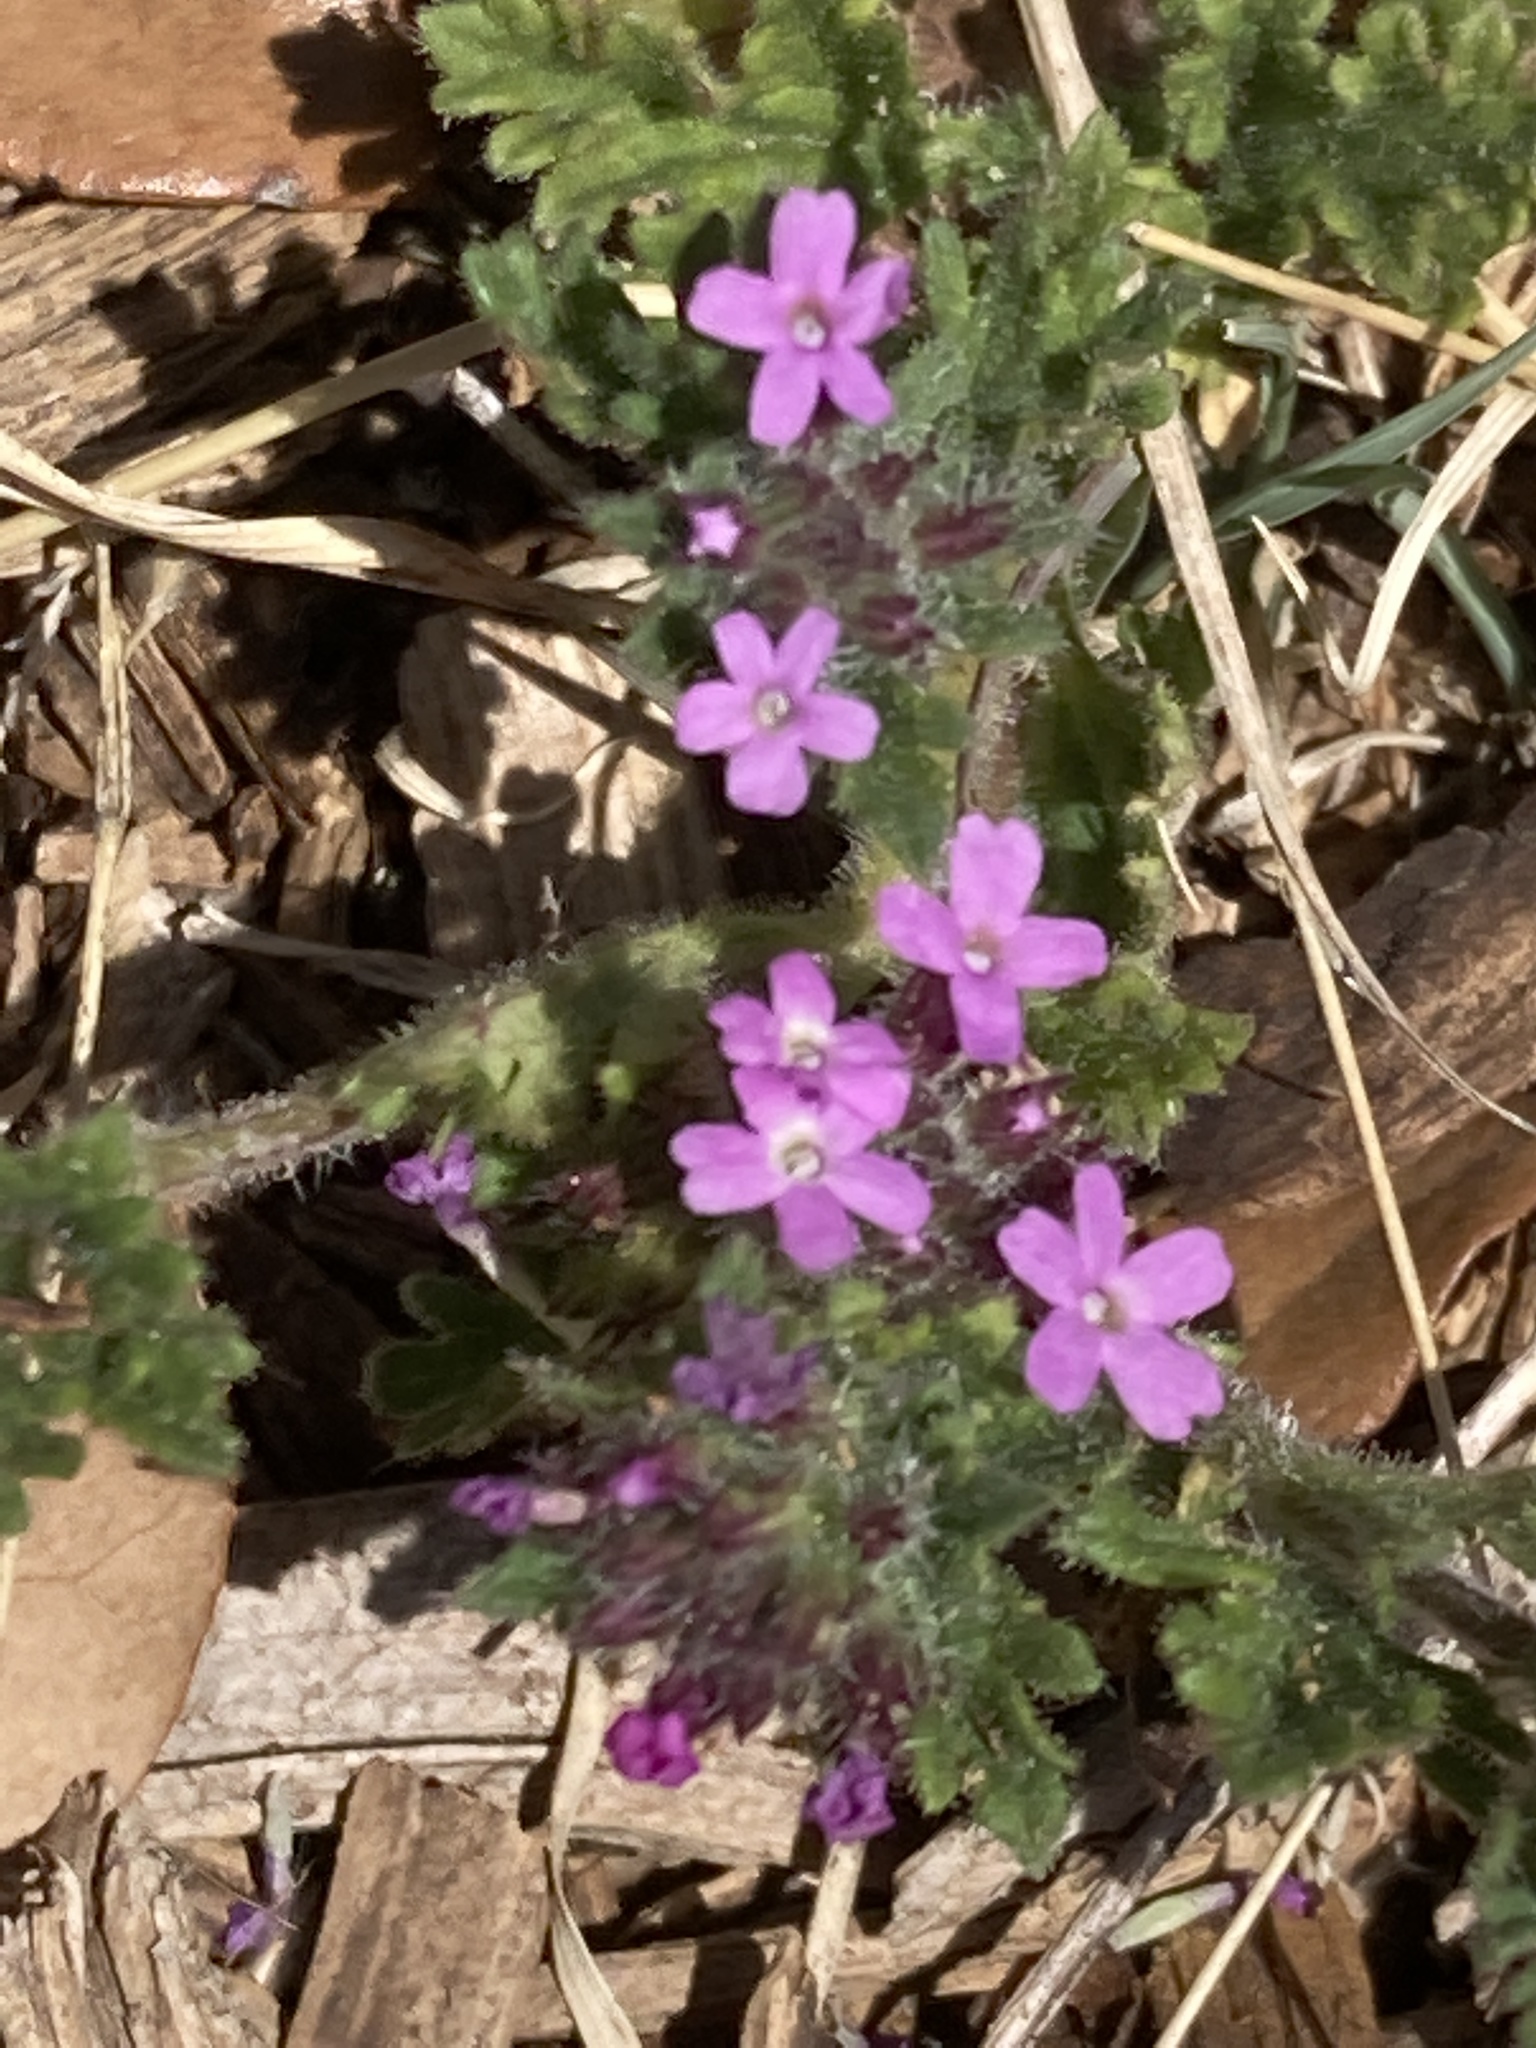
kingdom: Plantae
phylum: Tracheophyta
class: Magnoliopsida
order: Lamiales
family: Verbenaceae
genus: Verbena
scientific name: Verbena pumila
